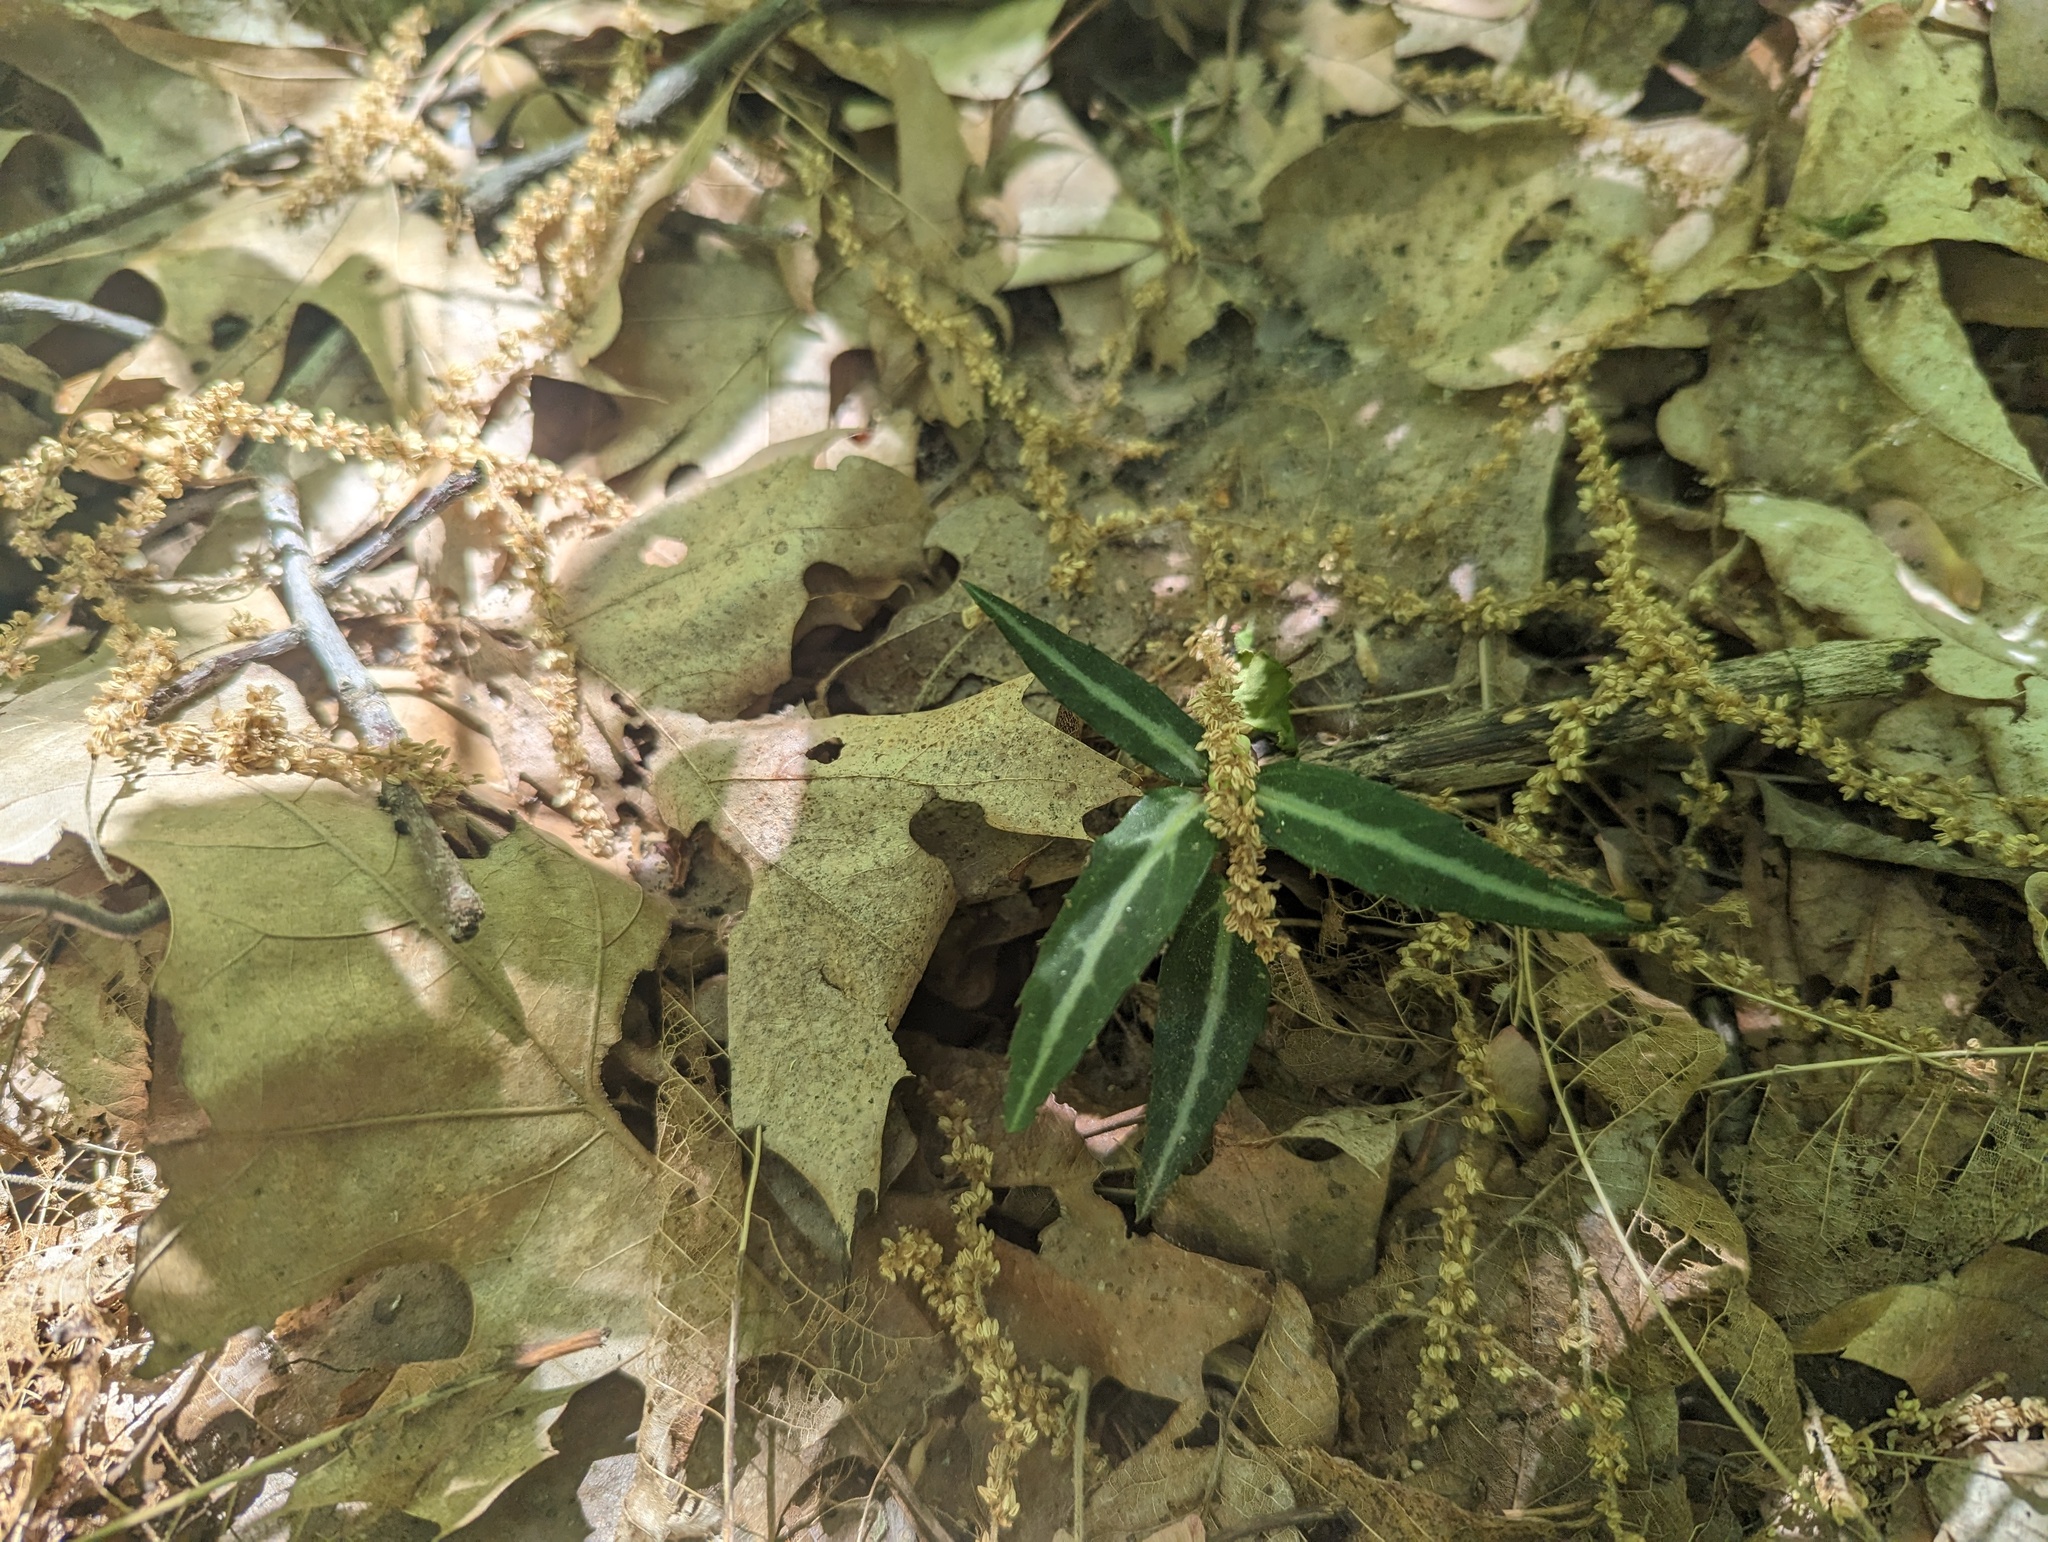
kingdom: Plantae
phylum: Tracheophyta
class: Magnoliopsida
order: Ericales
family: Ericaceae
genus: Chimaphila
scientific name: Chimaphila maculata
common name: Spotted pipsissewa
